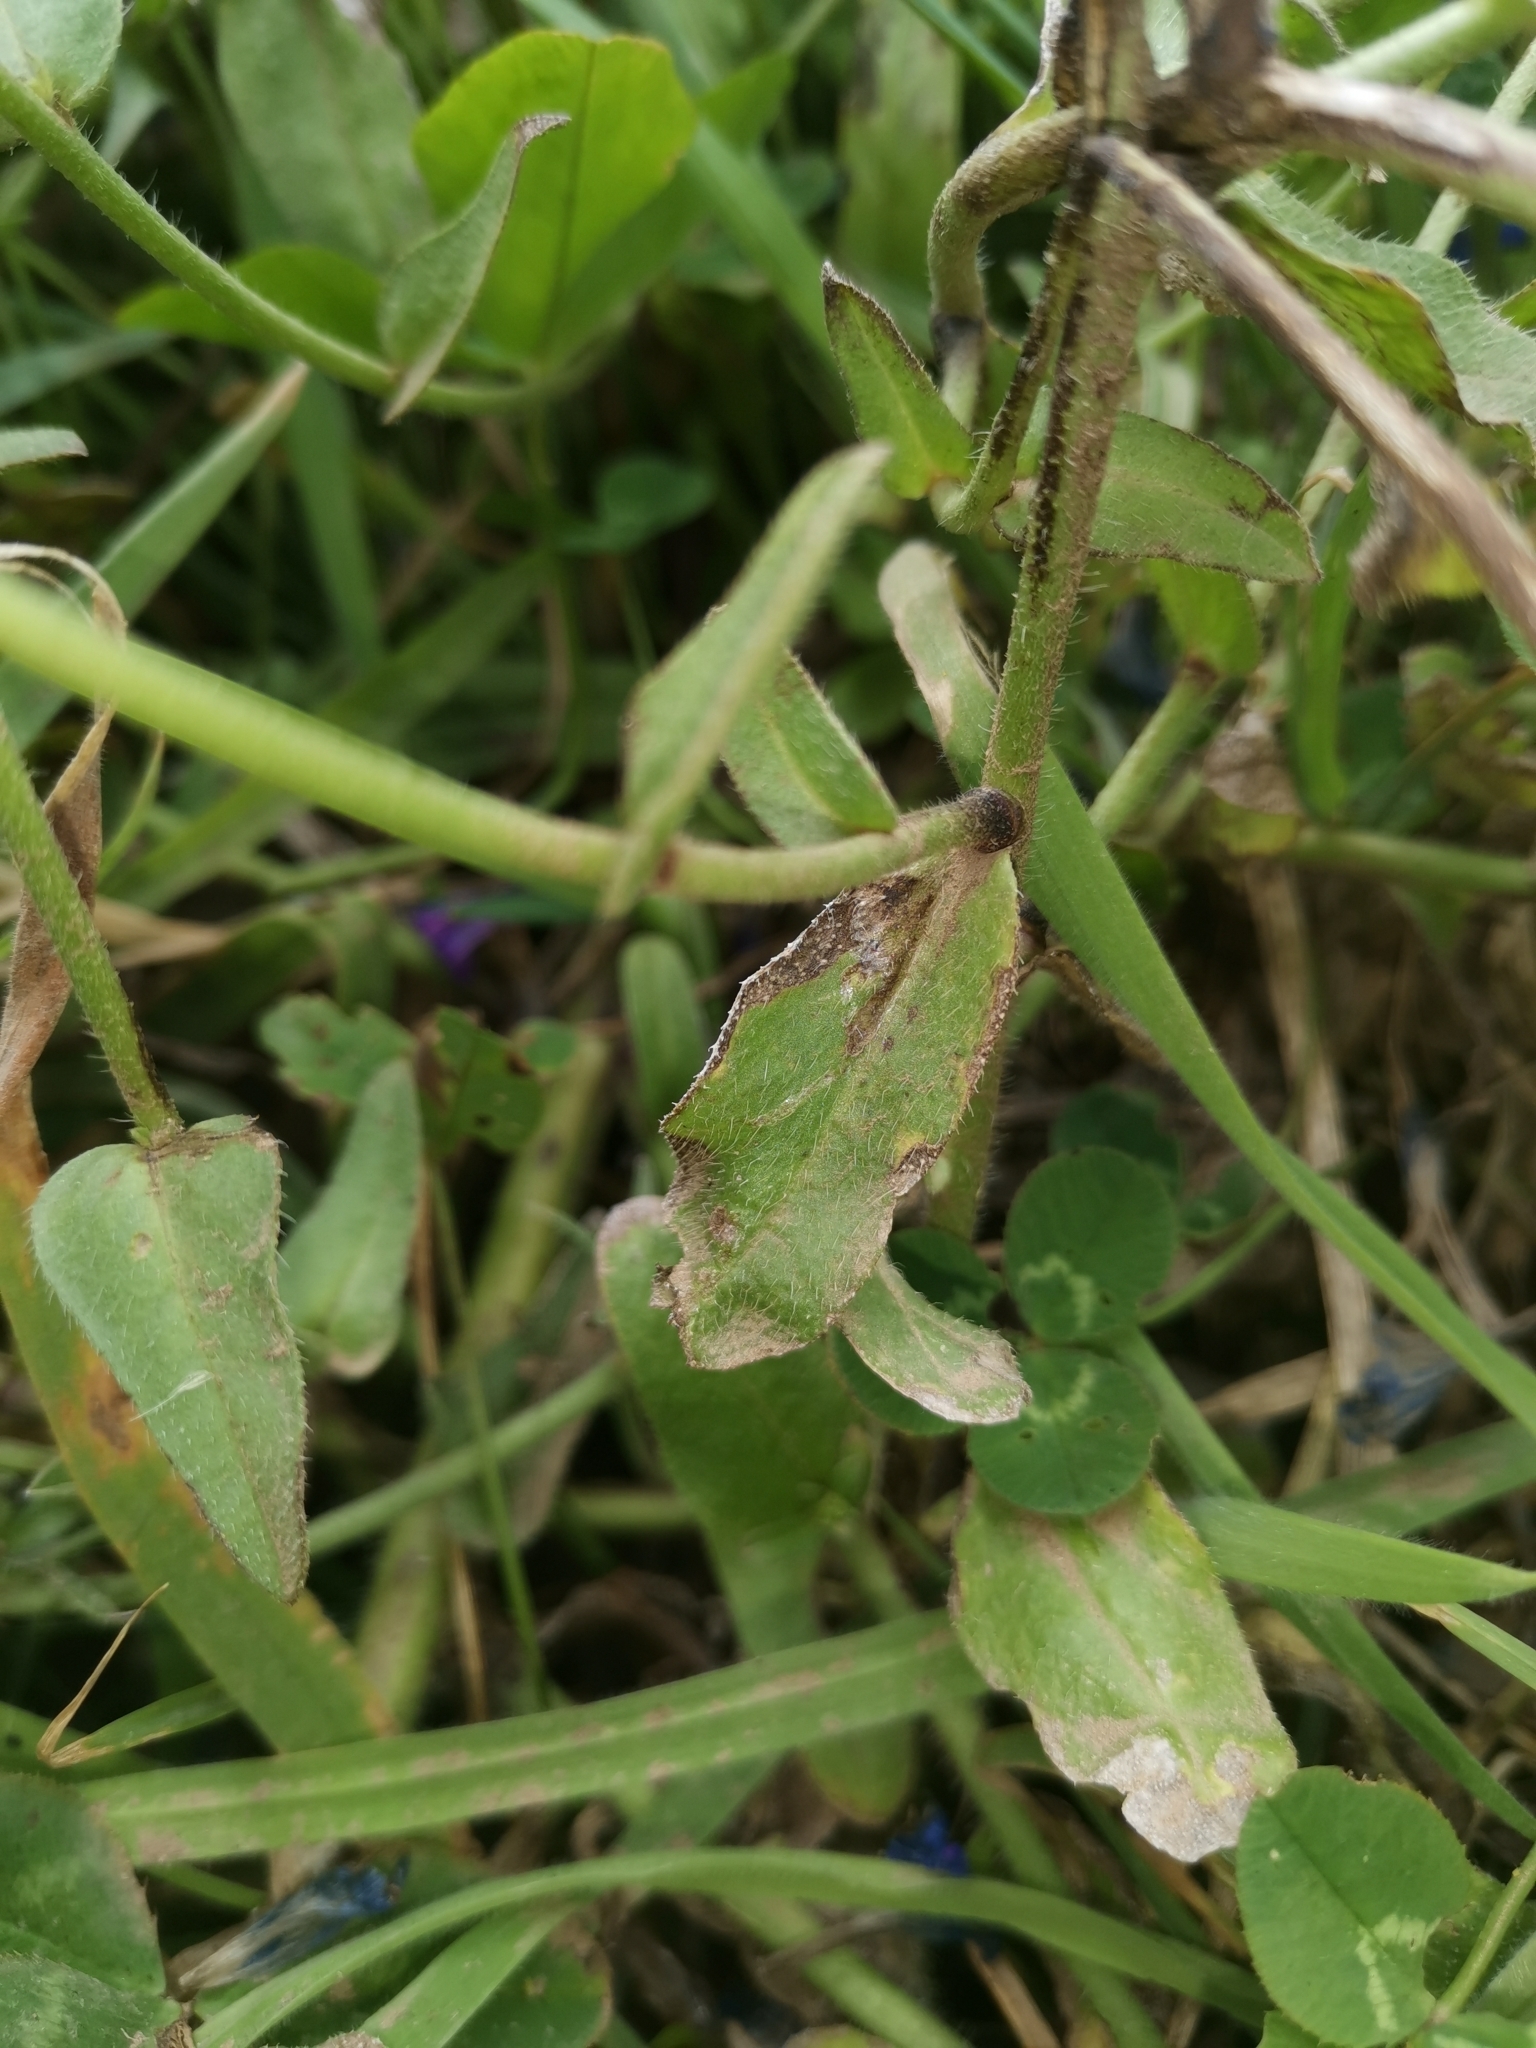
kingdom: Plantae
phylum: Tracheophyta
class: Magnoliopsida
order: Boraginales
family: Boraginaceae
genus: Echium
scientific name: Echium plantagineum
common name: Purple viper's-bugloss
